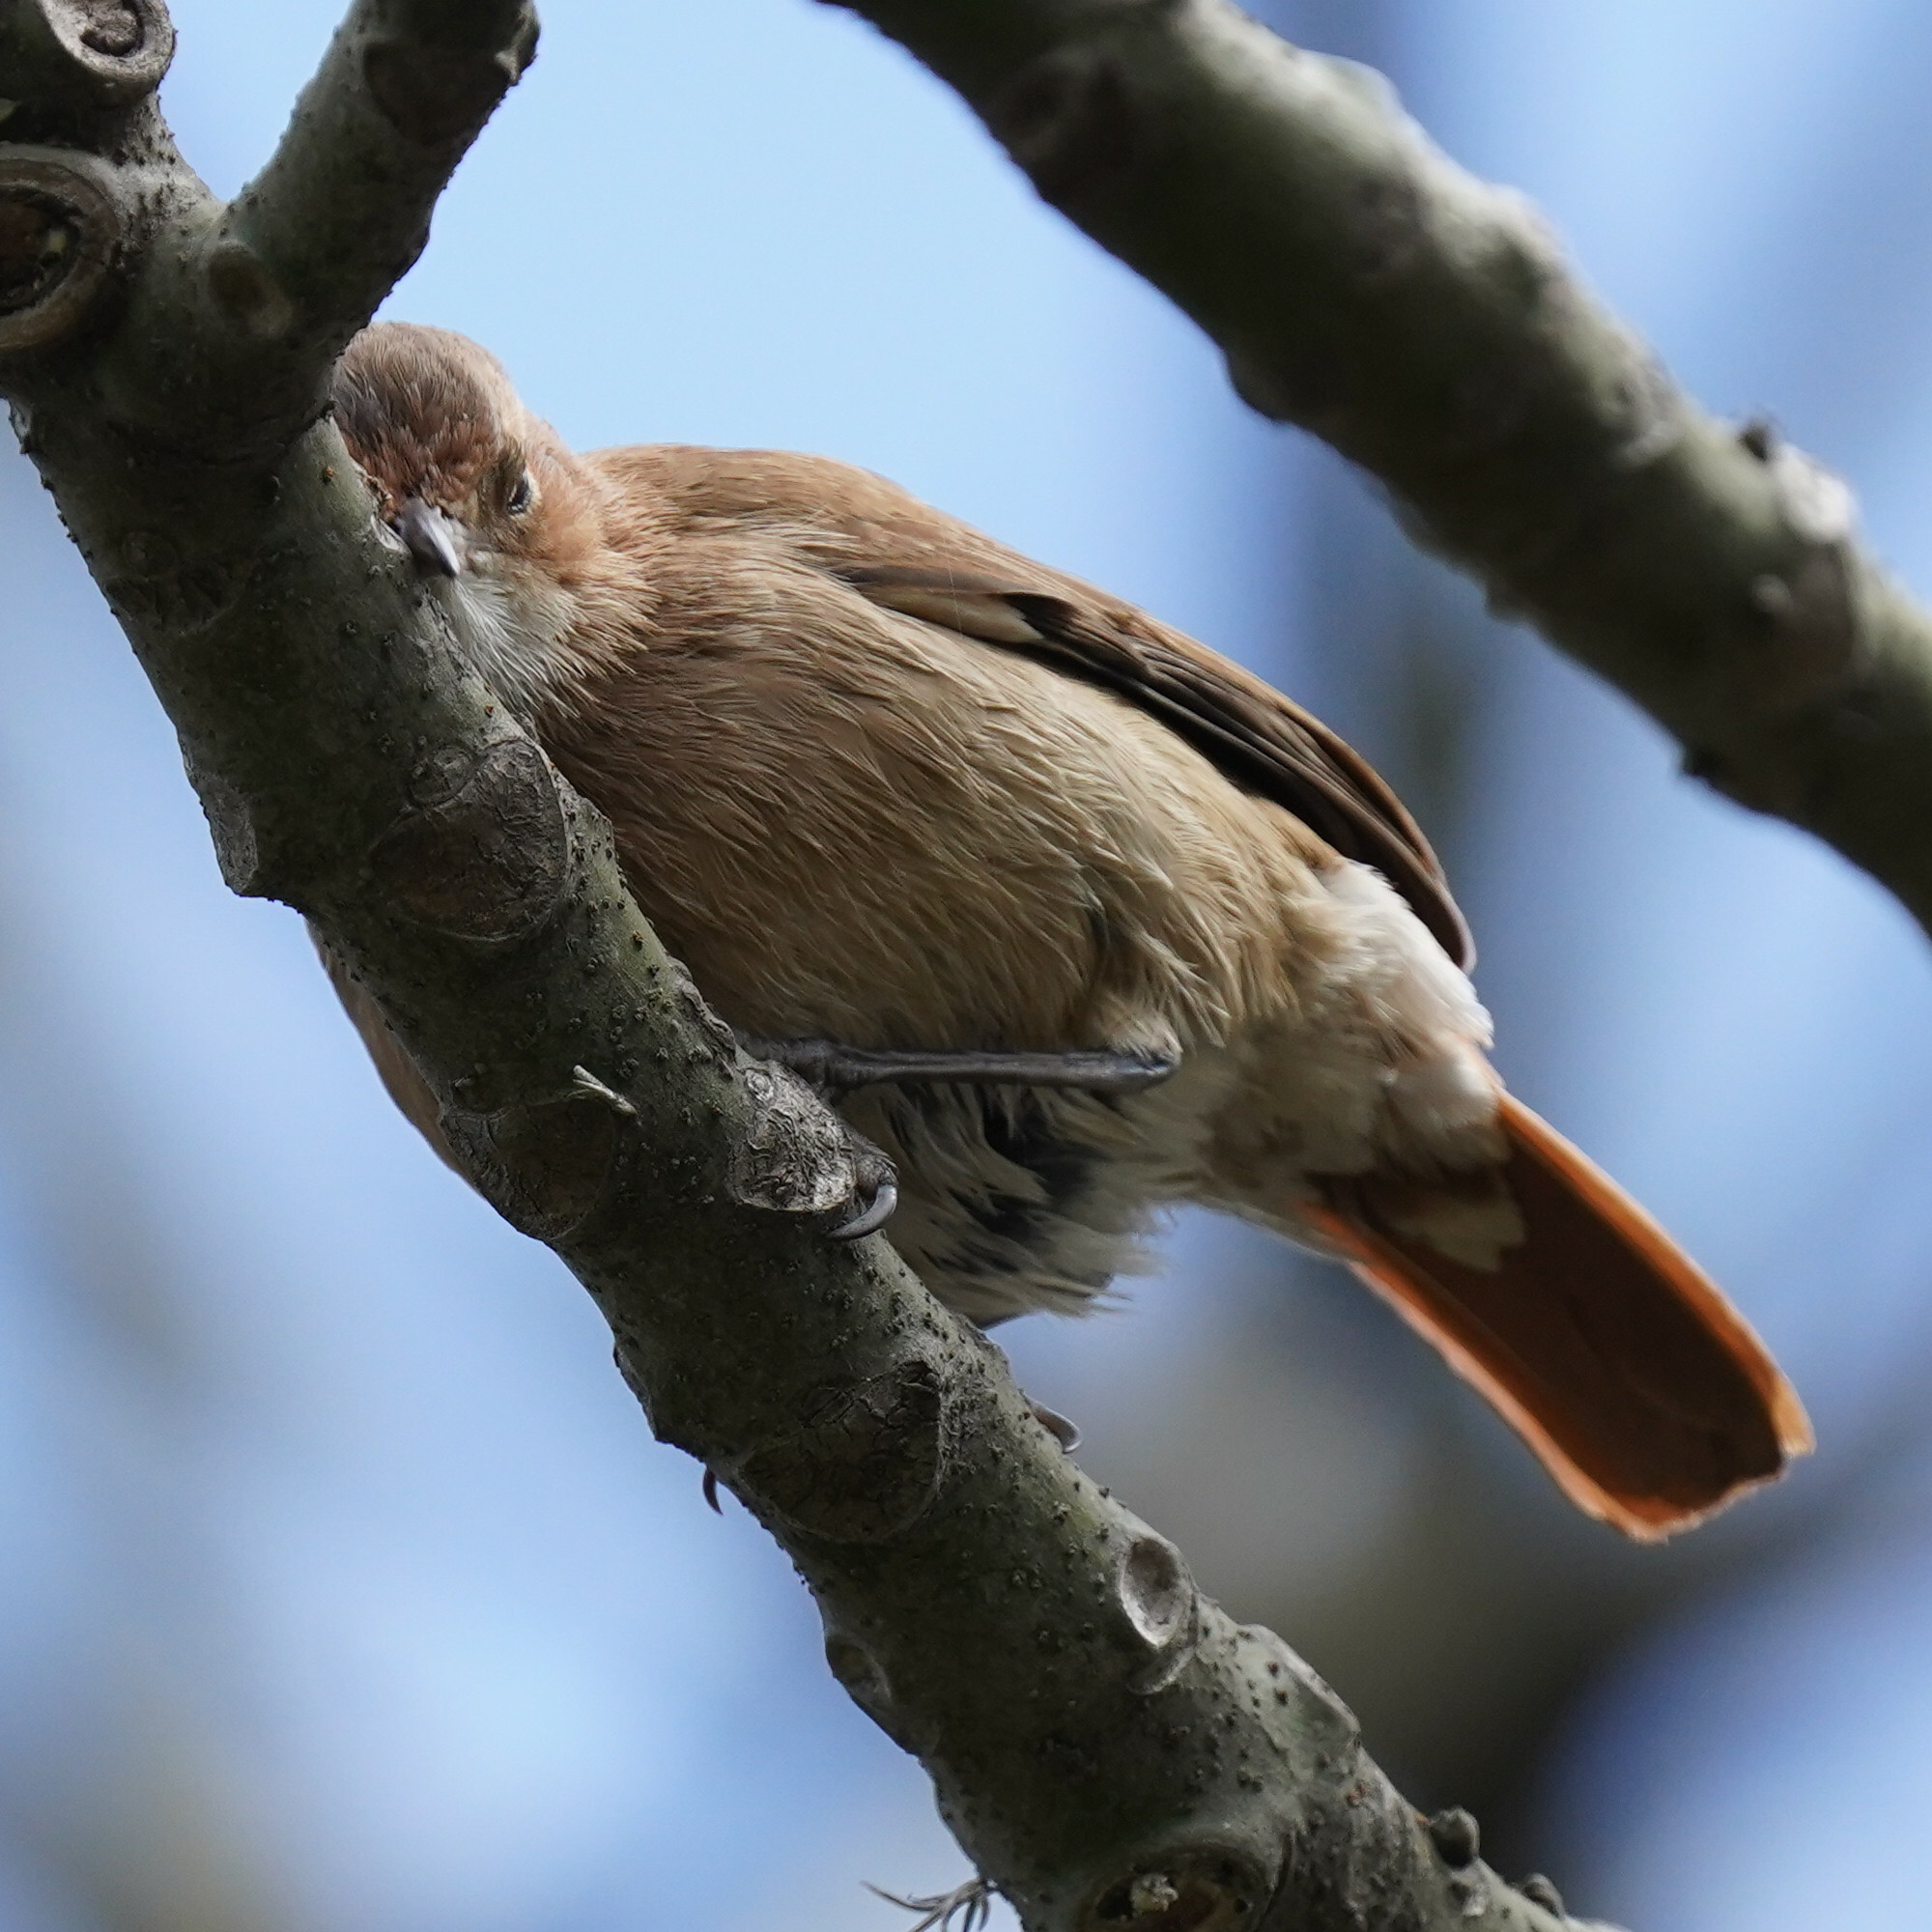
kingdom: Animalia
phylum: Chordata
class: Aves
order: Passeriformes
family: Furnariidae
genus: Furnarius
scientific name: Furnarius rufus
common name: Rufous hornero
